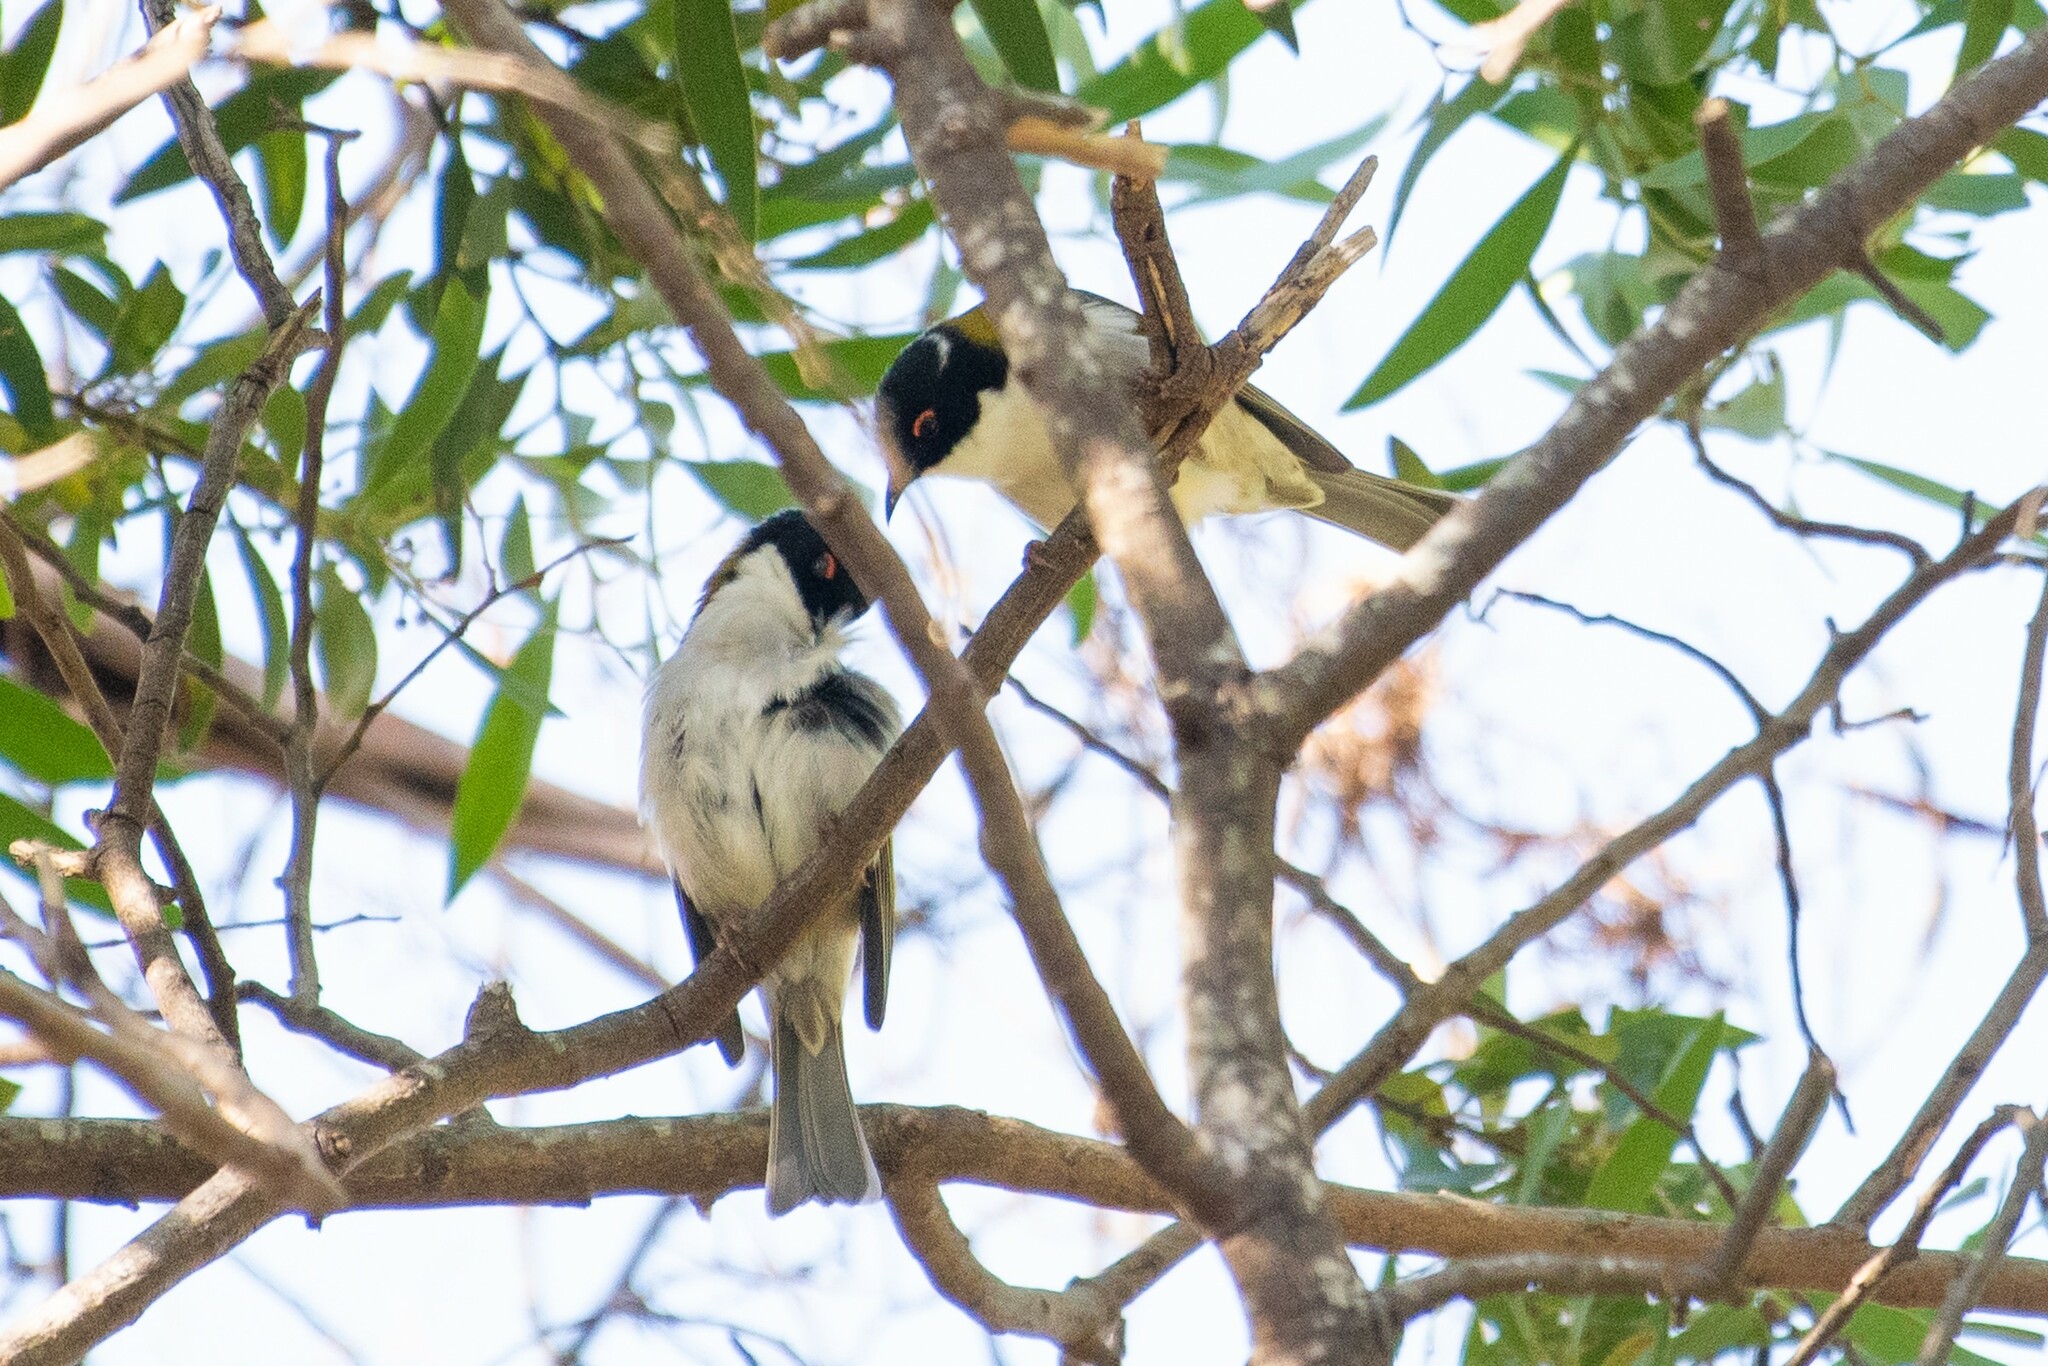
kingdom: Animalia
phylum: Chordata
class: Aves
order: Passeriformes
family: Meliphagidae
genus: Melithreptus
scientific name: Melithreptus lunatus
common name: White-naped honeyeater
